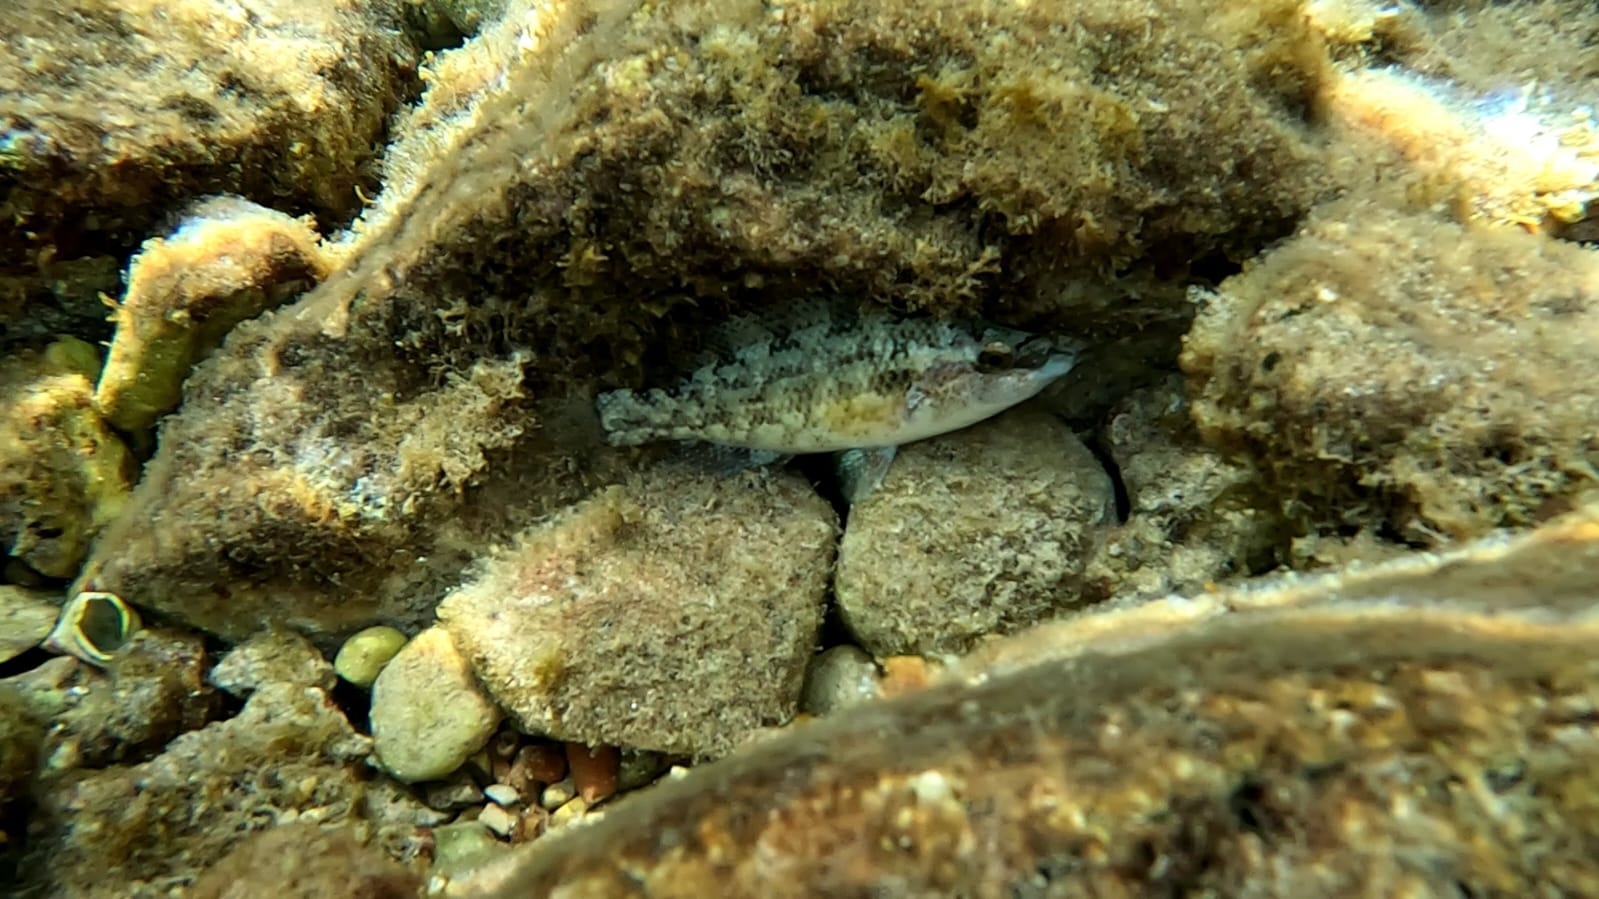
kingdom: Animalia
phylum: Chordata
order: Perciformes
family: Labridae
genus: Symphodus
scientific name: Symphodus tinca
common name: Peacock wrasse
